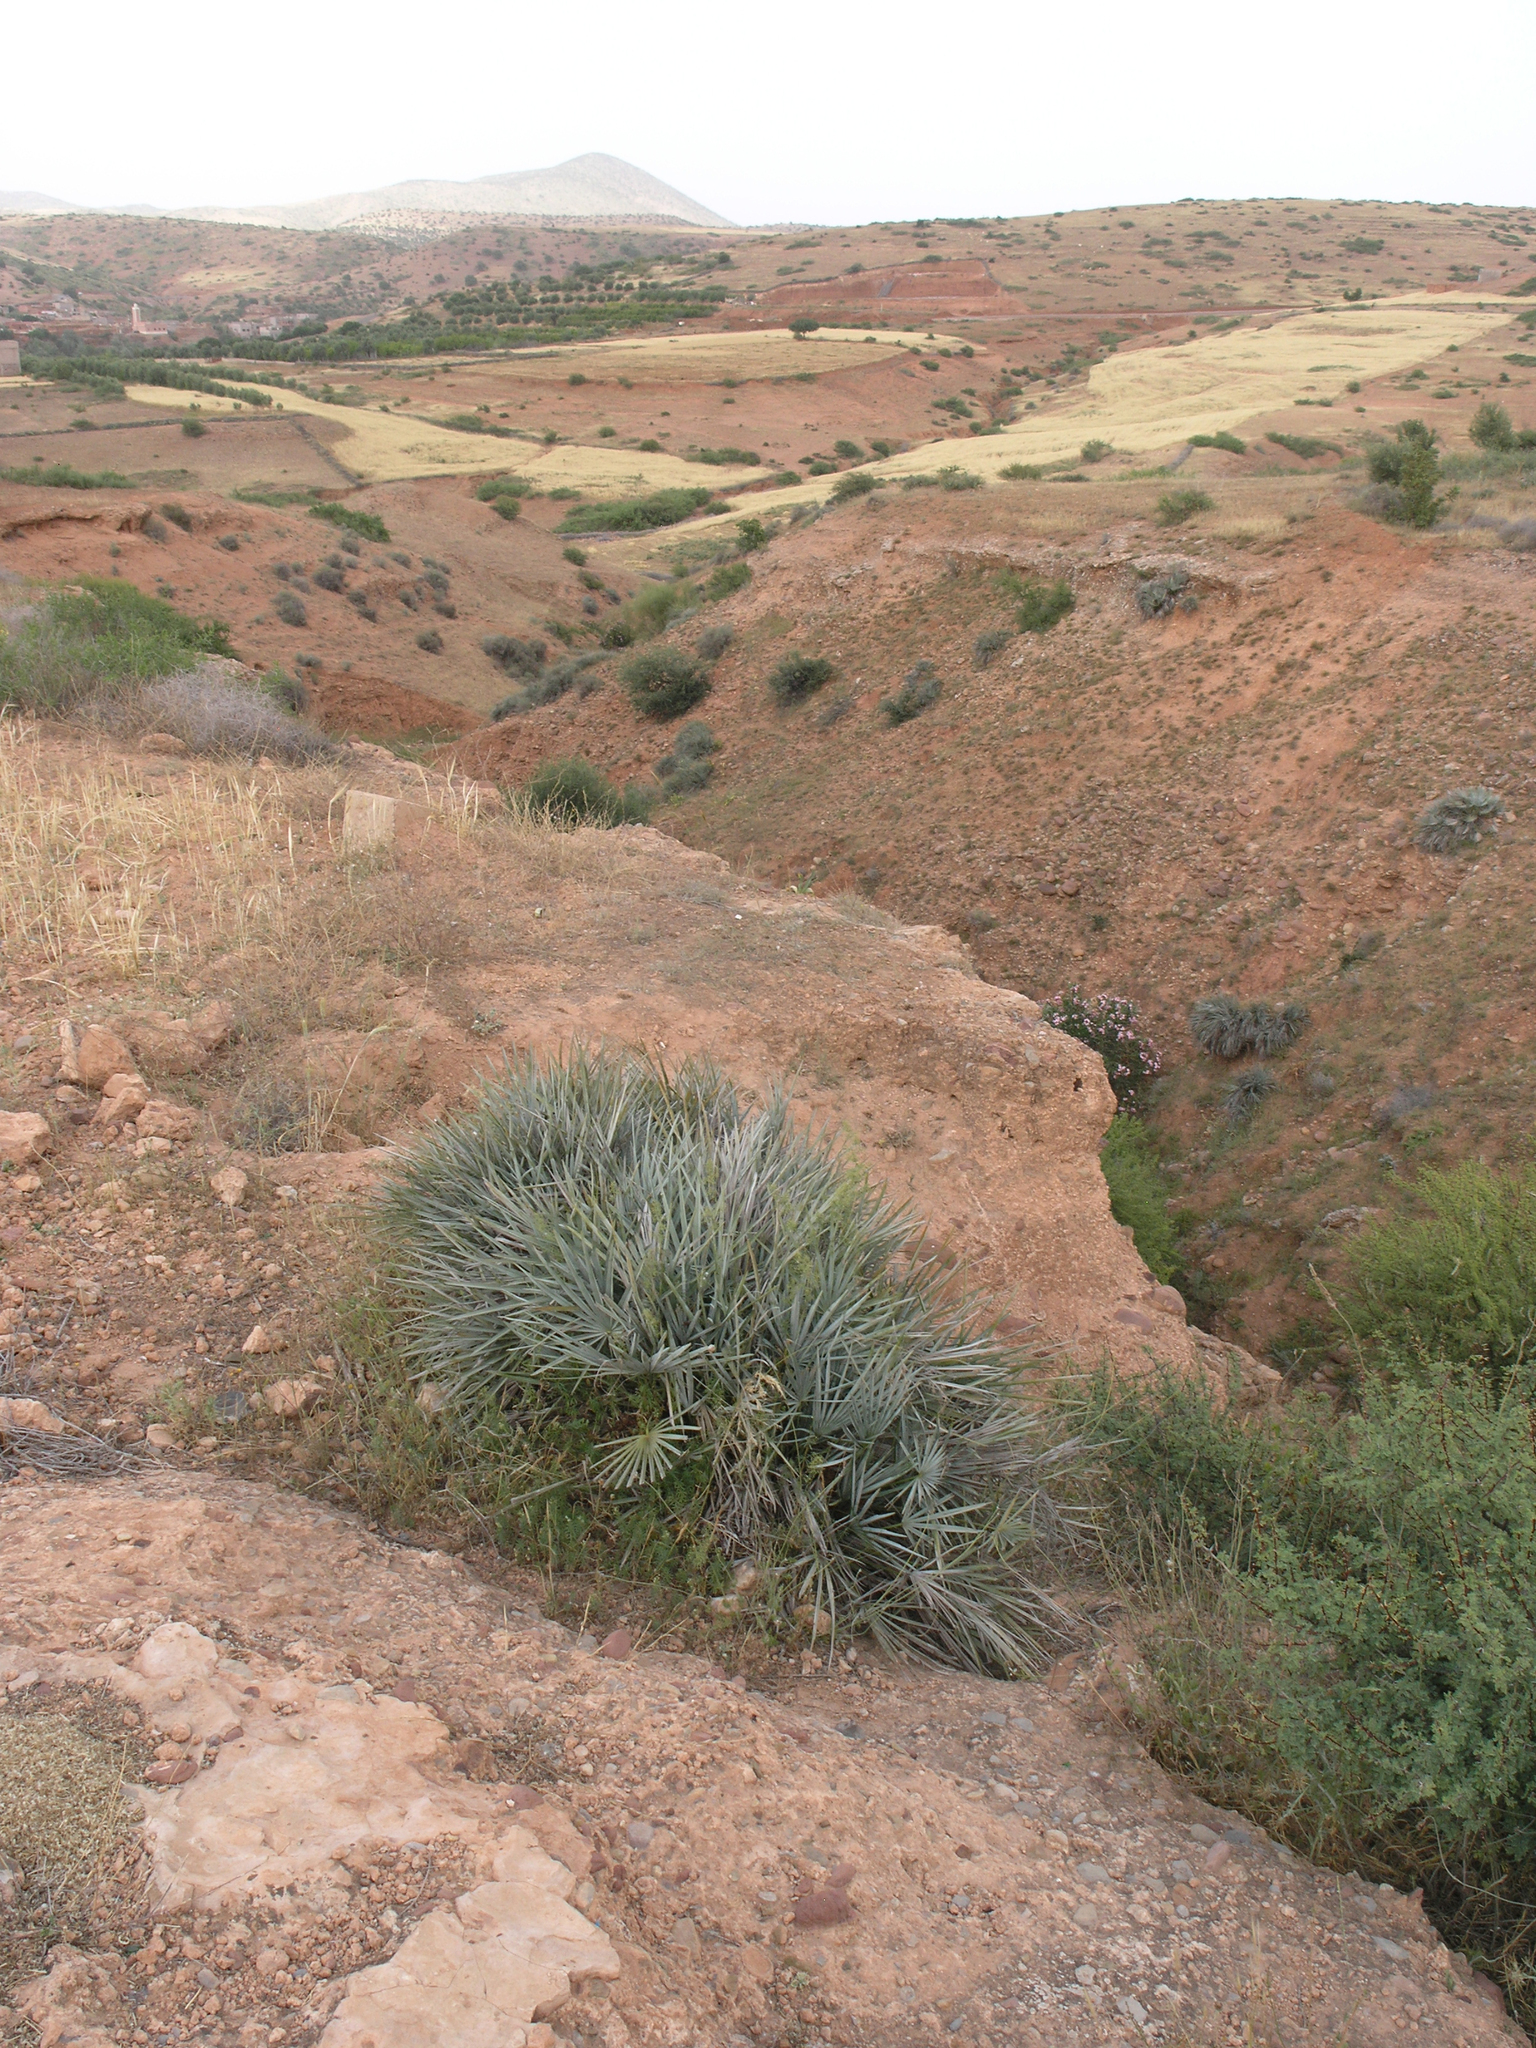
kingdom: Plantae
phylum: Tracheophyta
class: Liliopsida
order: Arecales
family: Arecaceae
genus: Chamaerops
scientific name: Chamaerops humilis
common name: Dwarf fan palm
